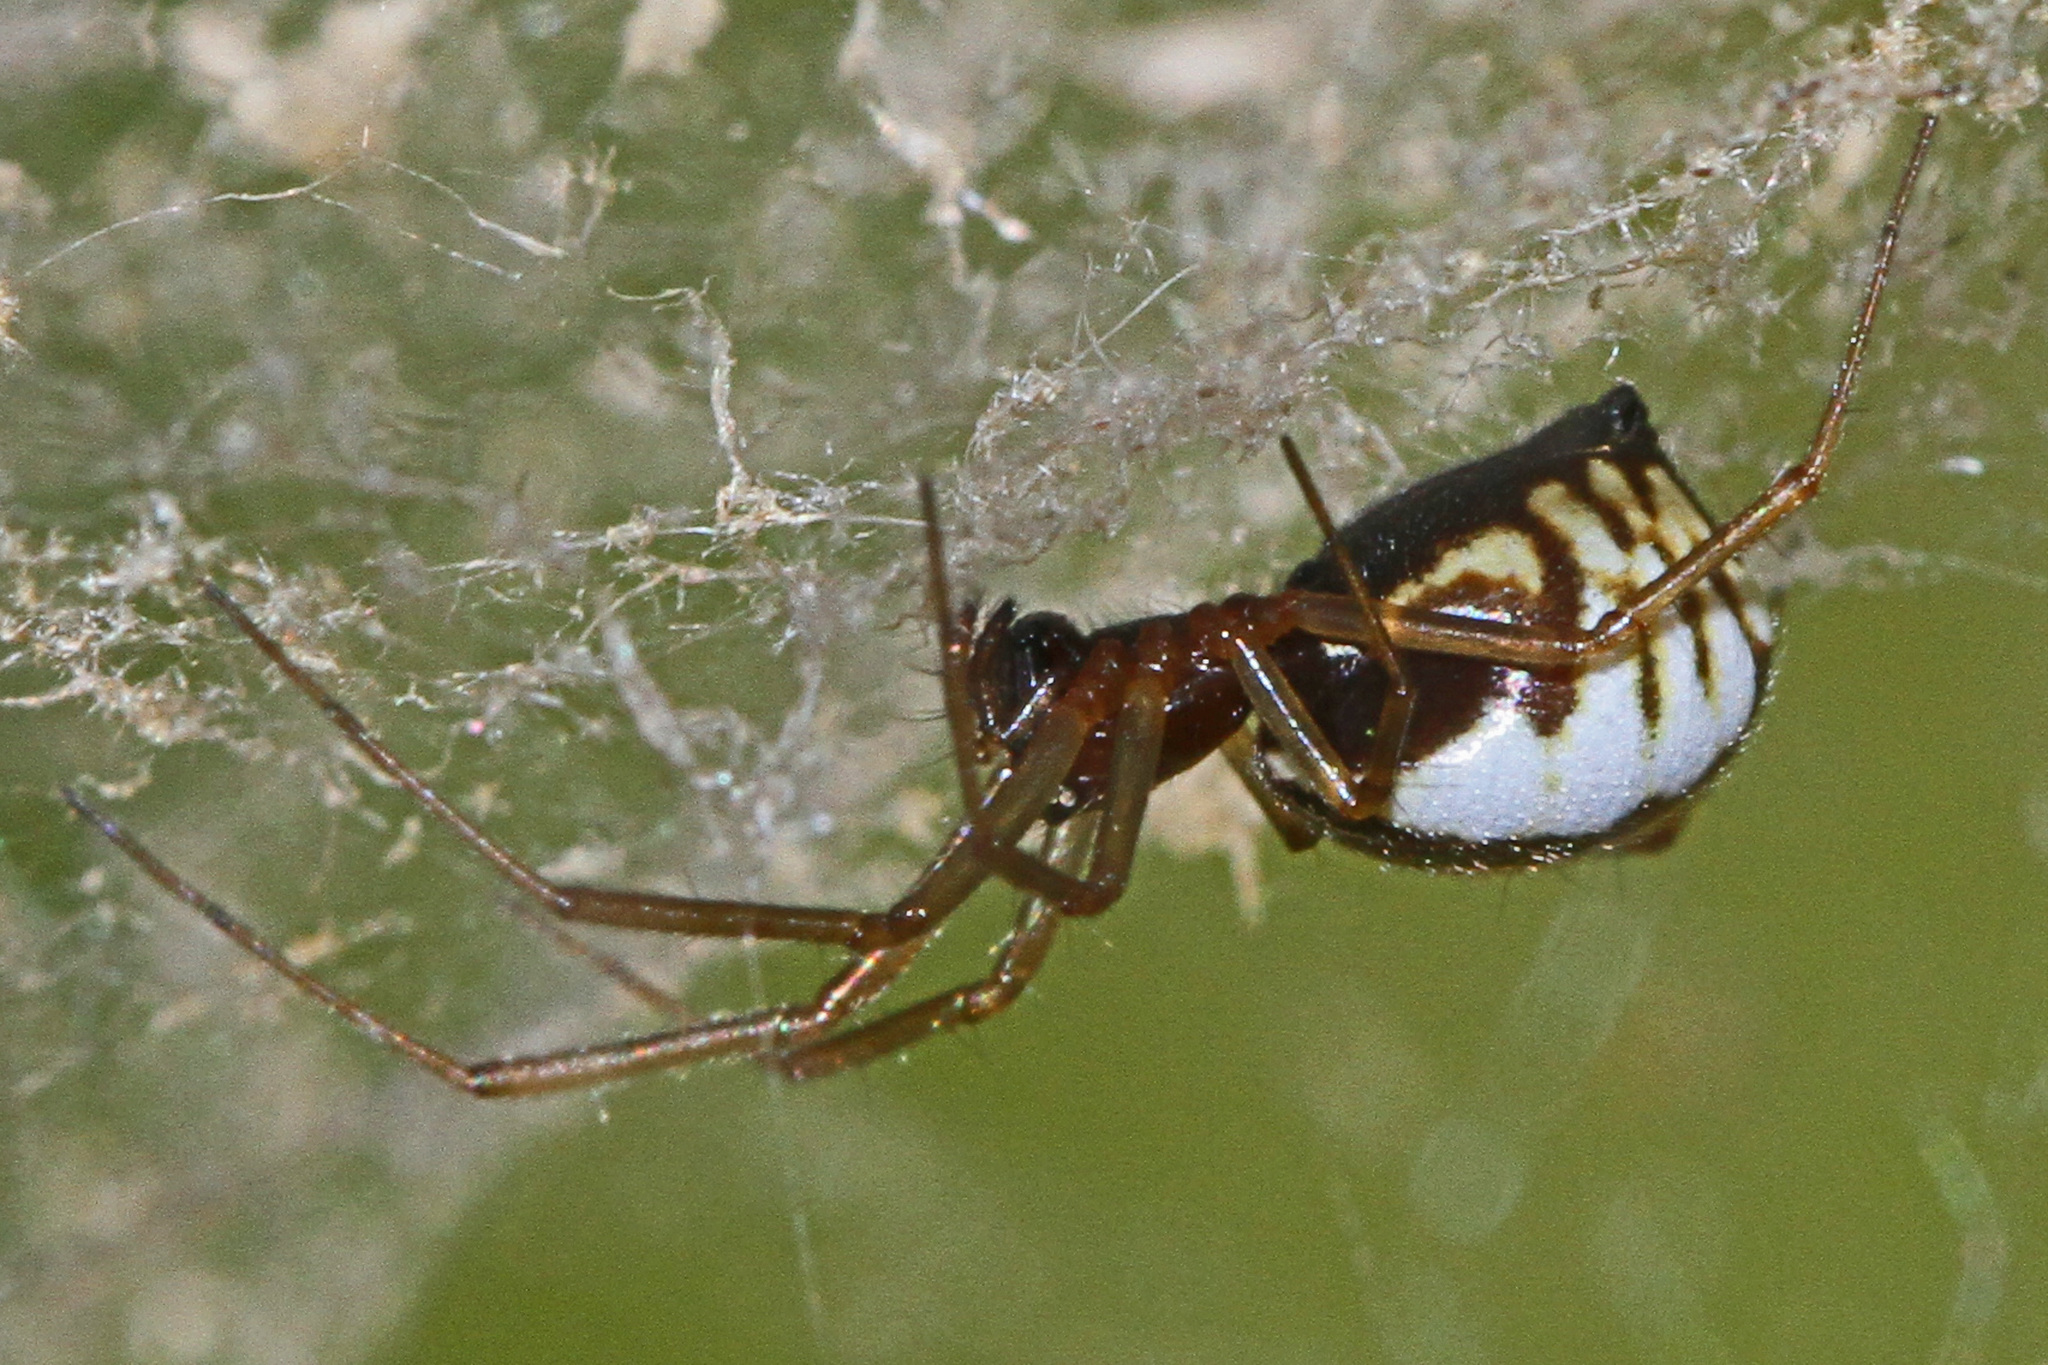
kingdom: Animalia
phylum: Arthropoda
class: Arachnida
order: Araneae
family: Linyphiidae
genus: Frontinella
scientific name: Frontinella pyramitela
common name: Bowl-and-doily spider
